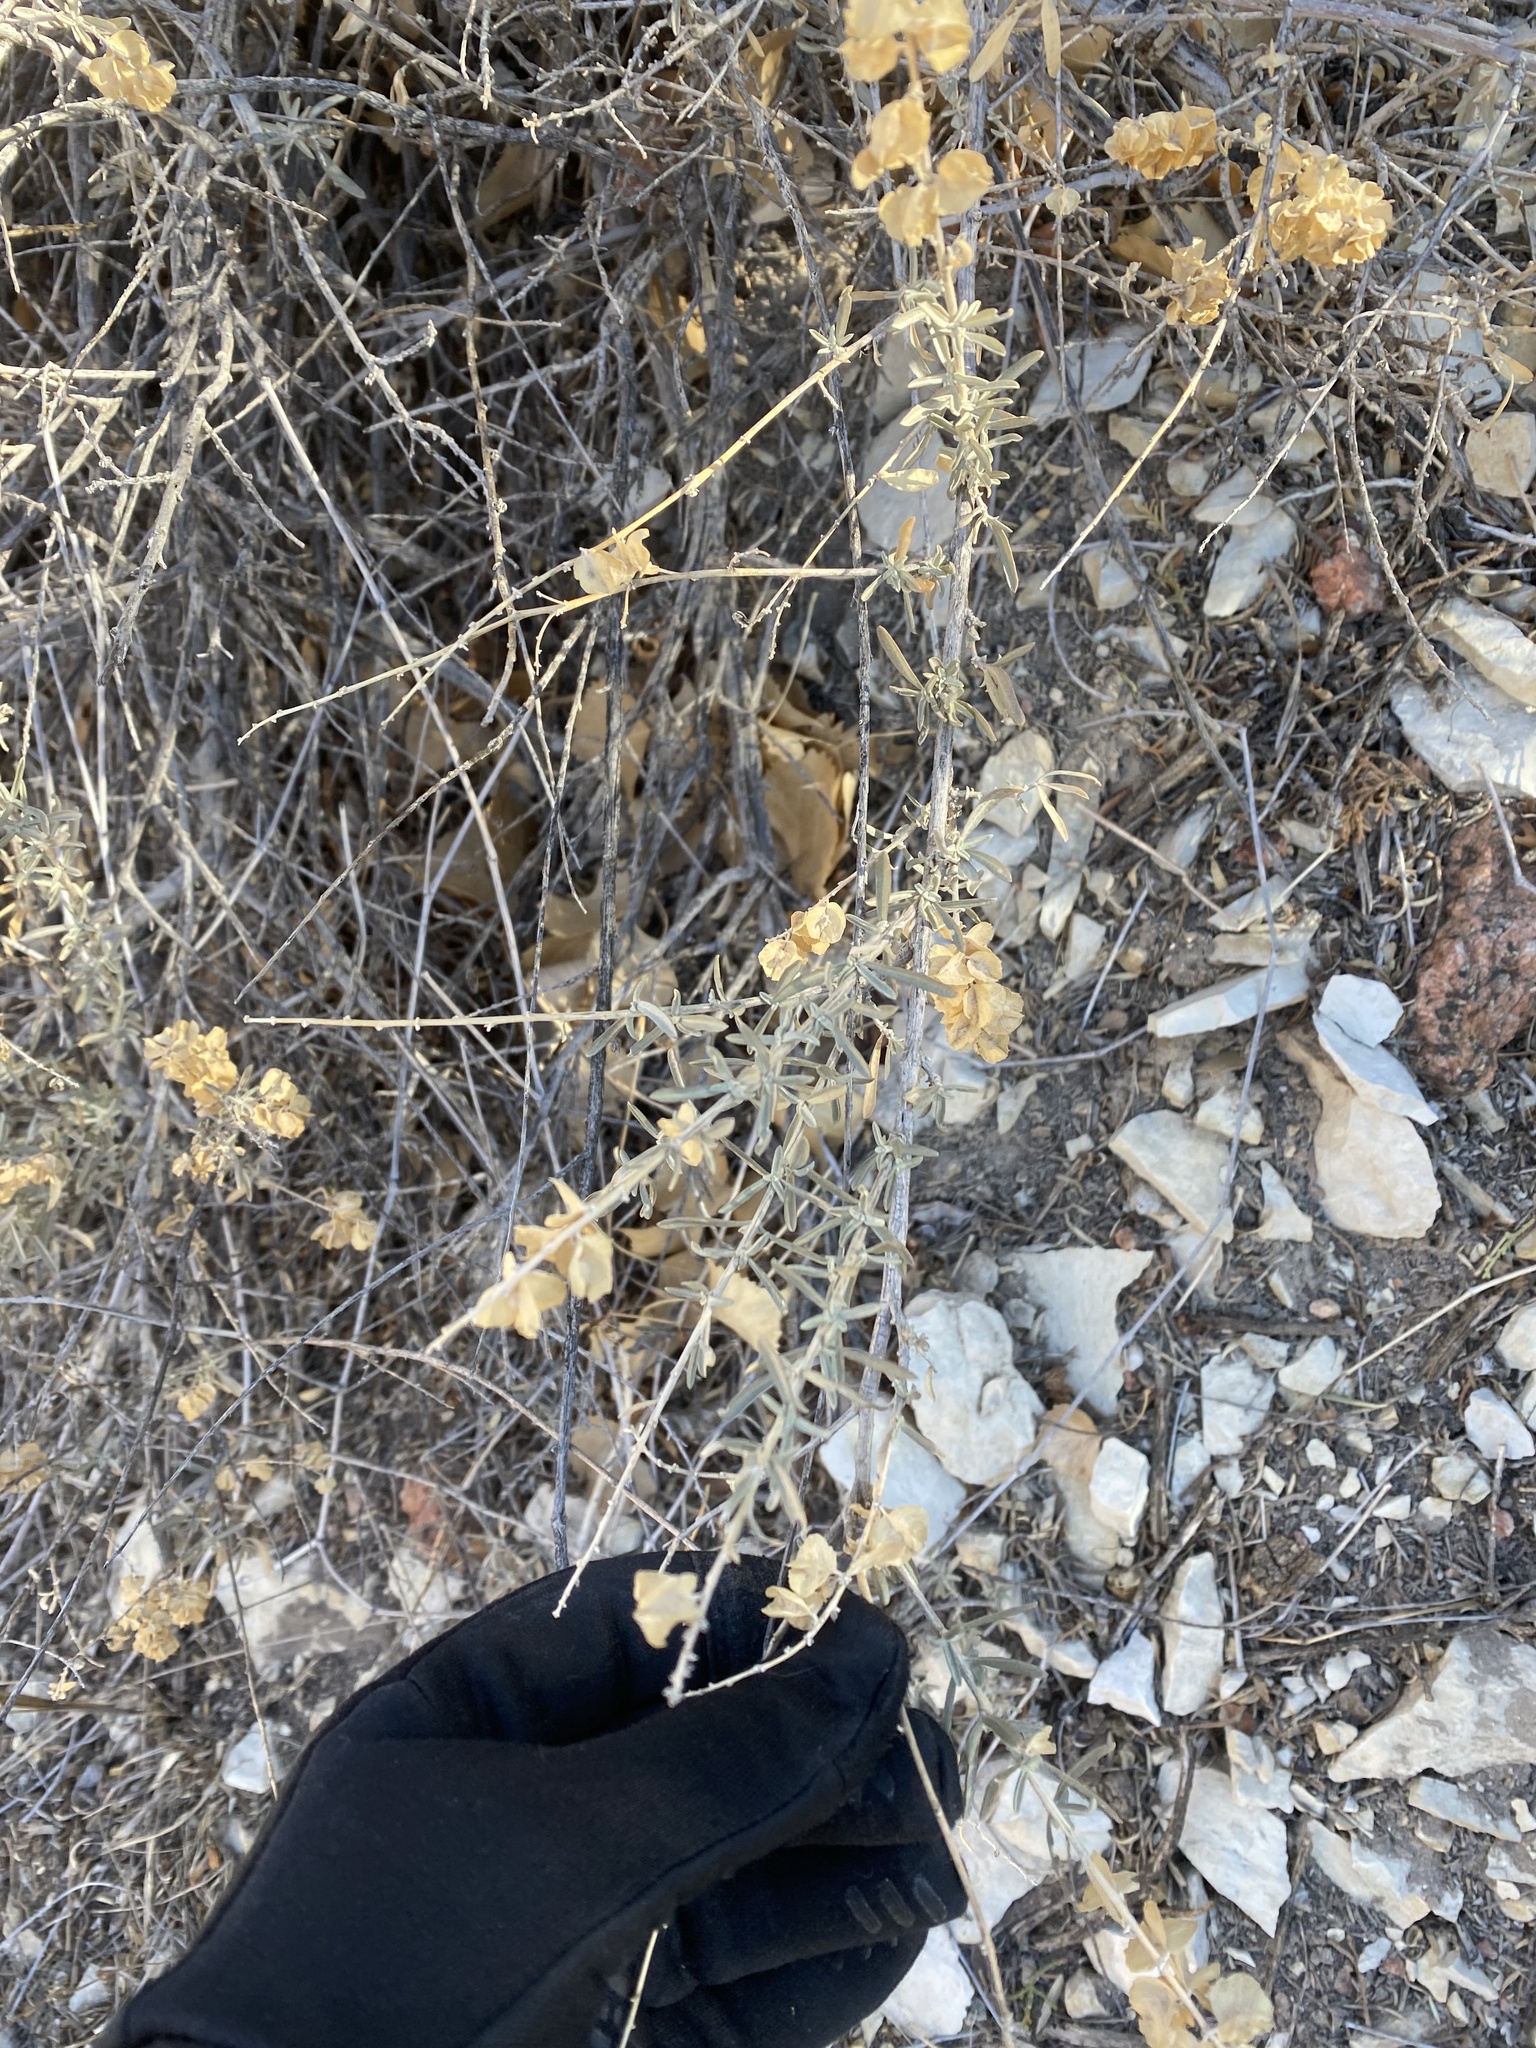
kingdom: Plantae
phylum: Tracheophyta
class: Magnoliopsida
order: Caryophyllales
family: Amaranthaceae
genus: Atriplex
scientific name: Atriplex canescens
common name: Four-wing saltbush
